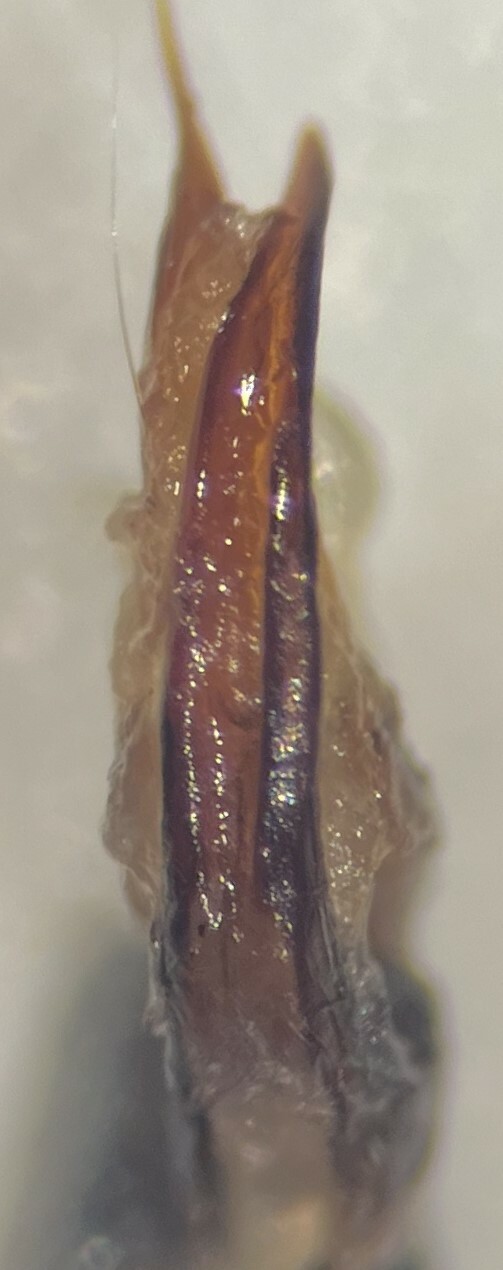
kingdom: Animalia
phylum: Arthropoda
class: Insecta
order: Coleoptera
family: Dytiscidae
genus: Ilybiosoma
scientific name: Ilybiosoma lugens
